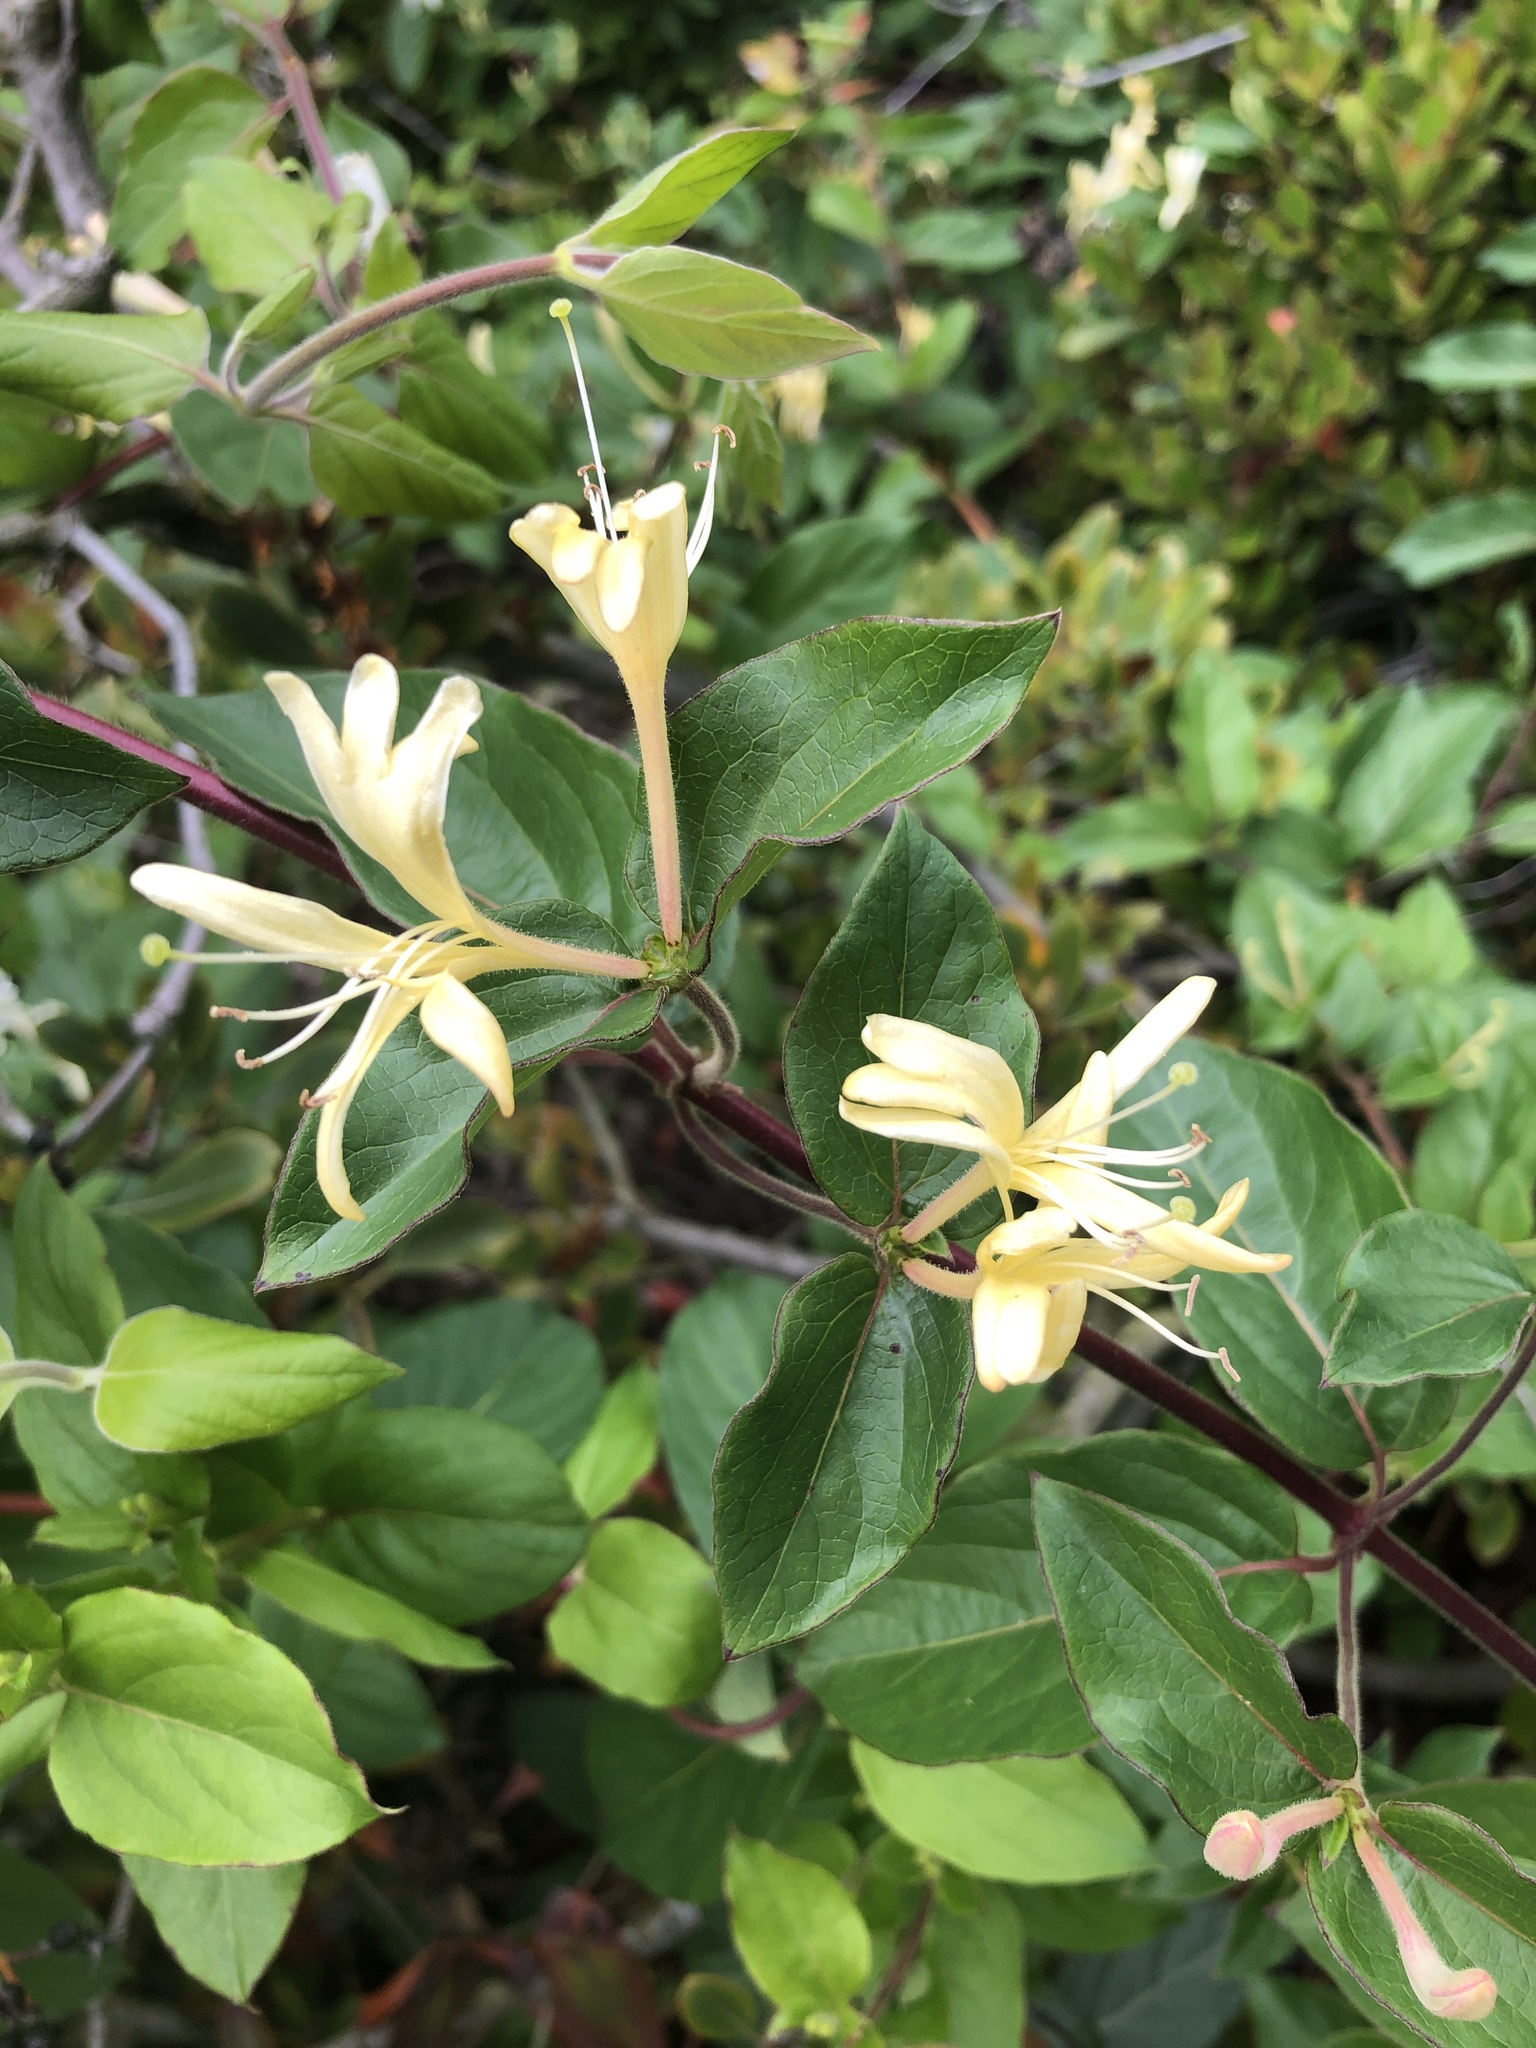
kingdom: Plantae
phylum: Tracheophyta
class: Magnoliopsida
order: Dipsacales
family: Caprifoliaceae
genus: Lonicera
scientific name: Lonicera japonica
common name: Japanese honeysuckle
